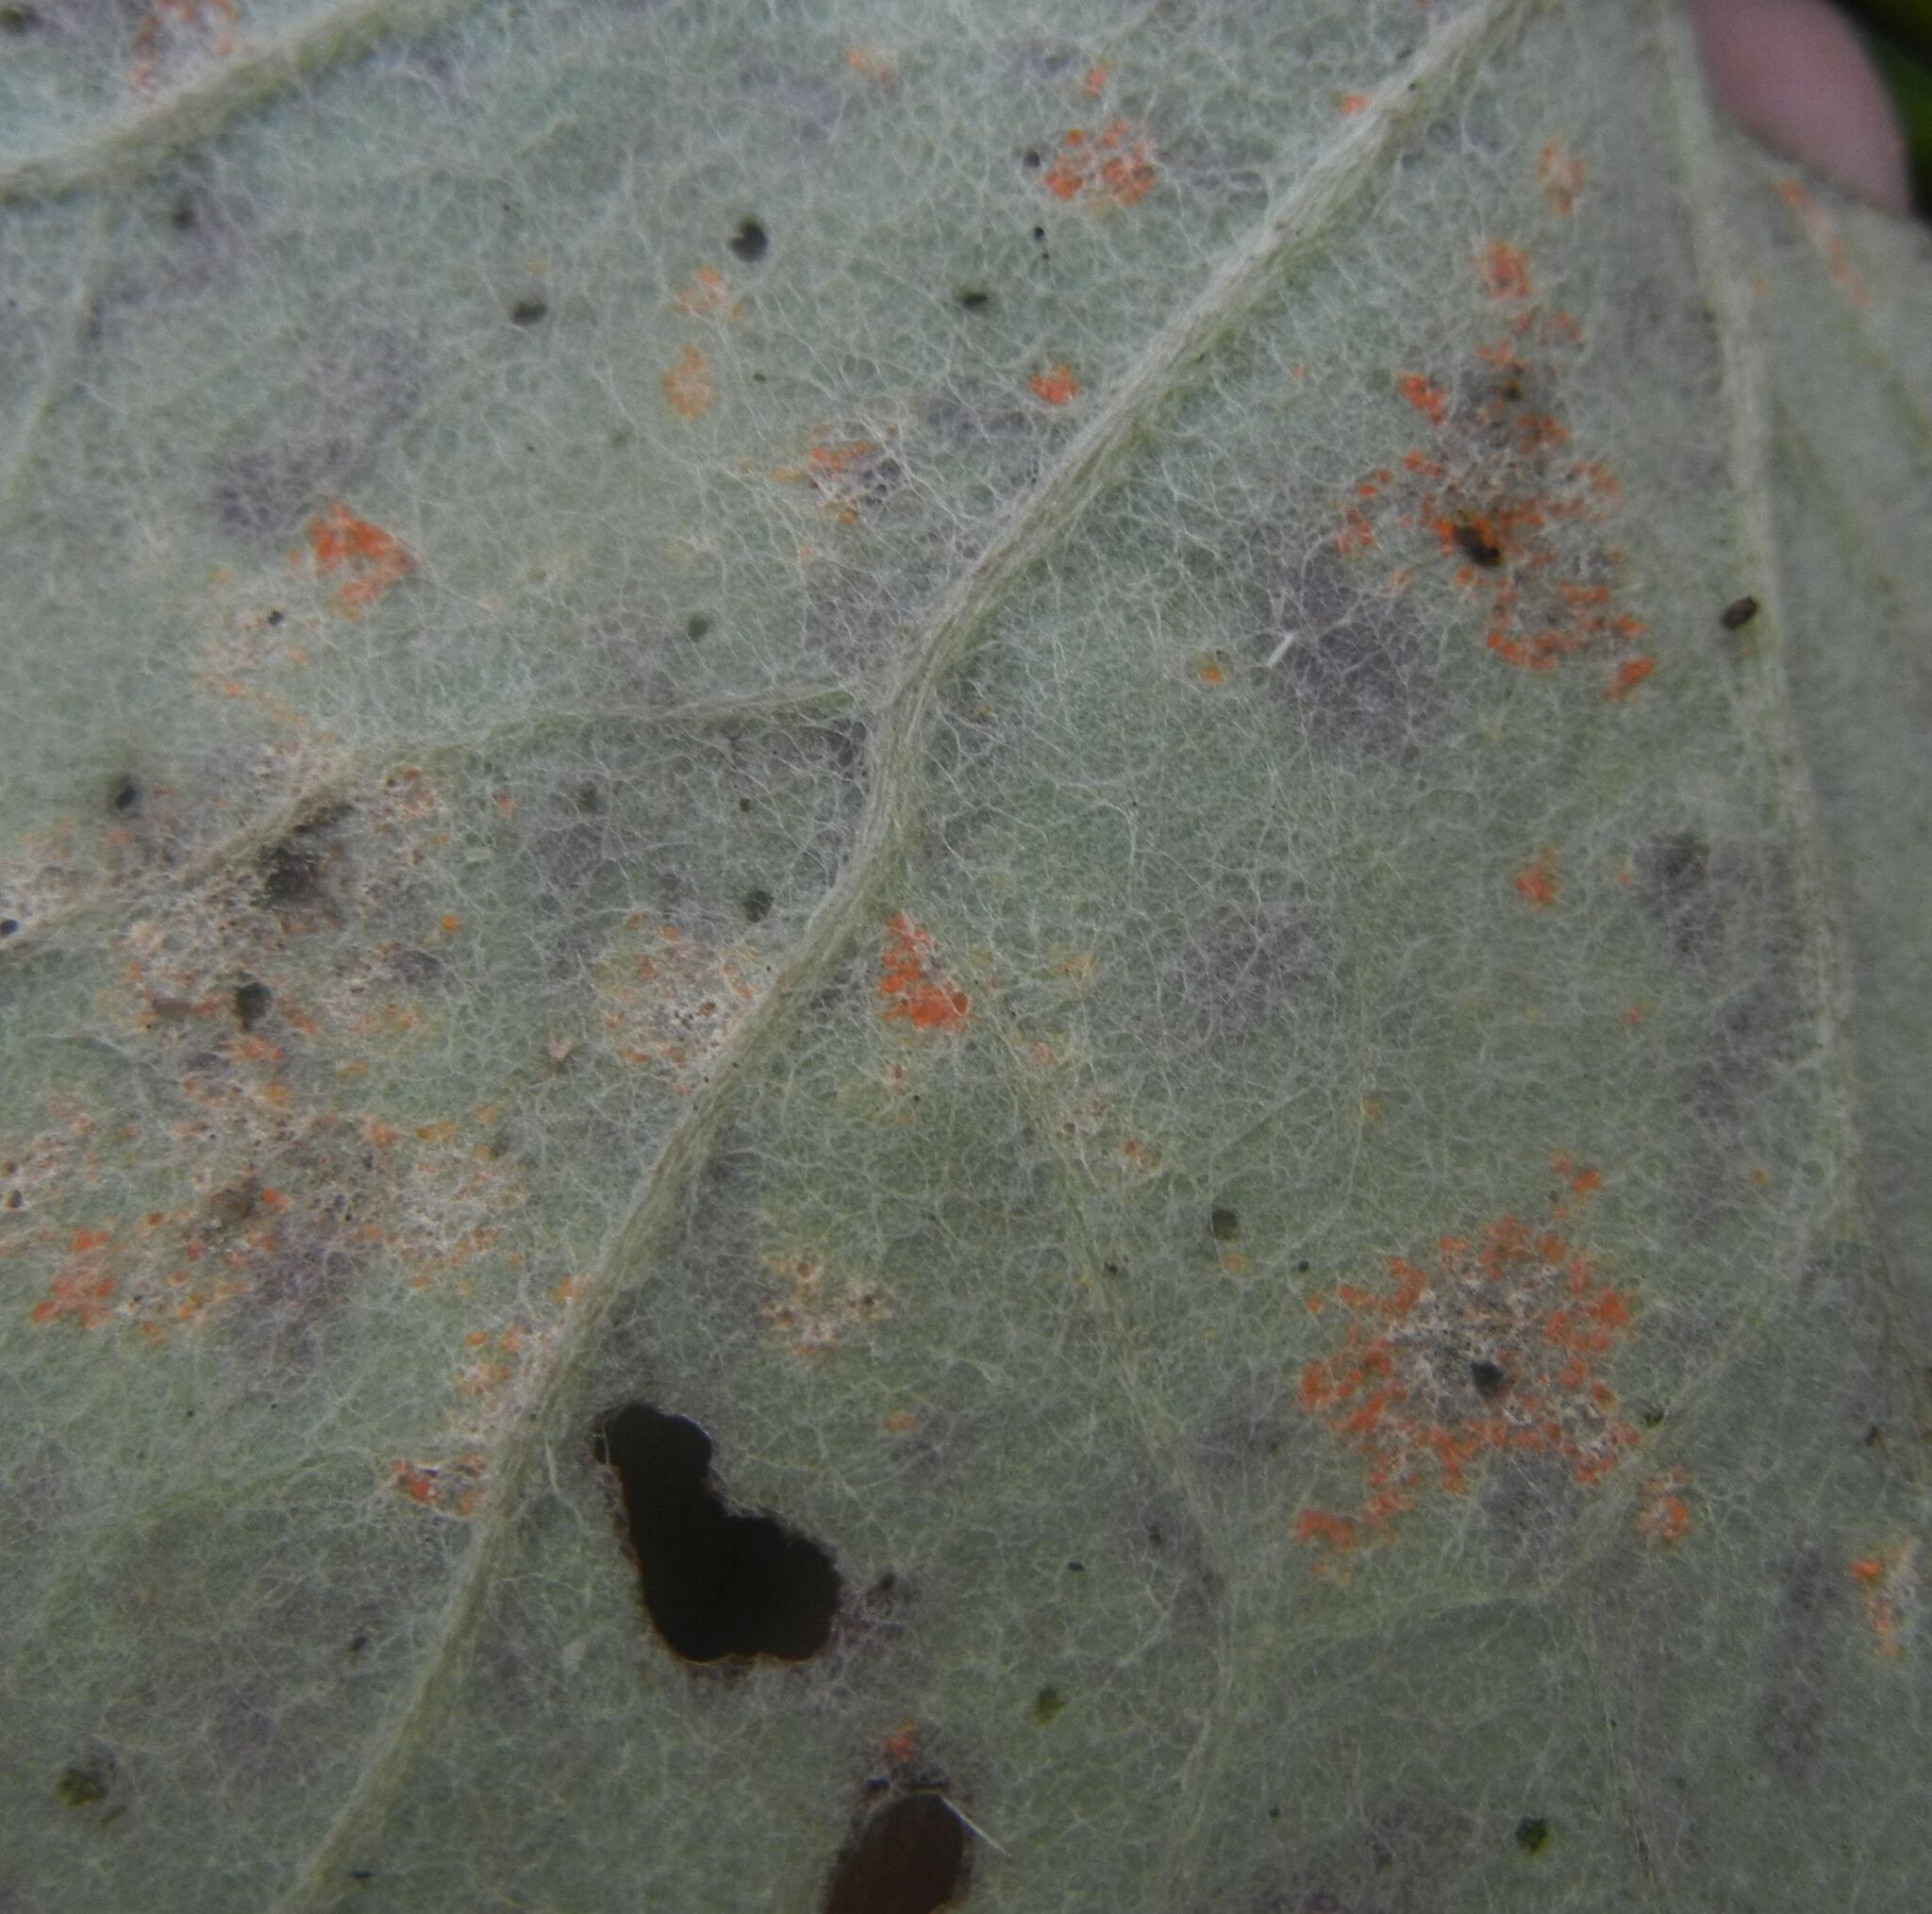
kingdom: Fungi
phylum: Basidiomycota
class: Pucciniomycetes
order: Pucciniales
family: Coleosporiaceae
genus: Coleosporium
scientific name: Coleosporium tussilaginis
